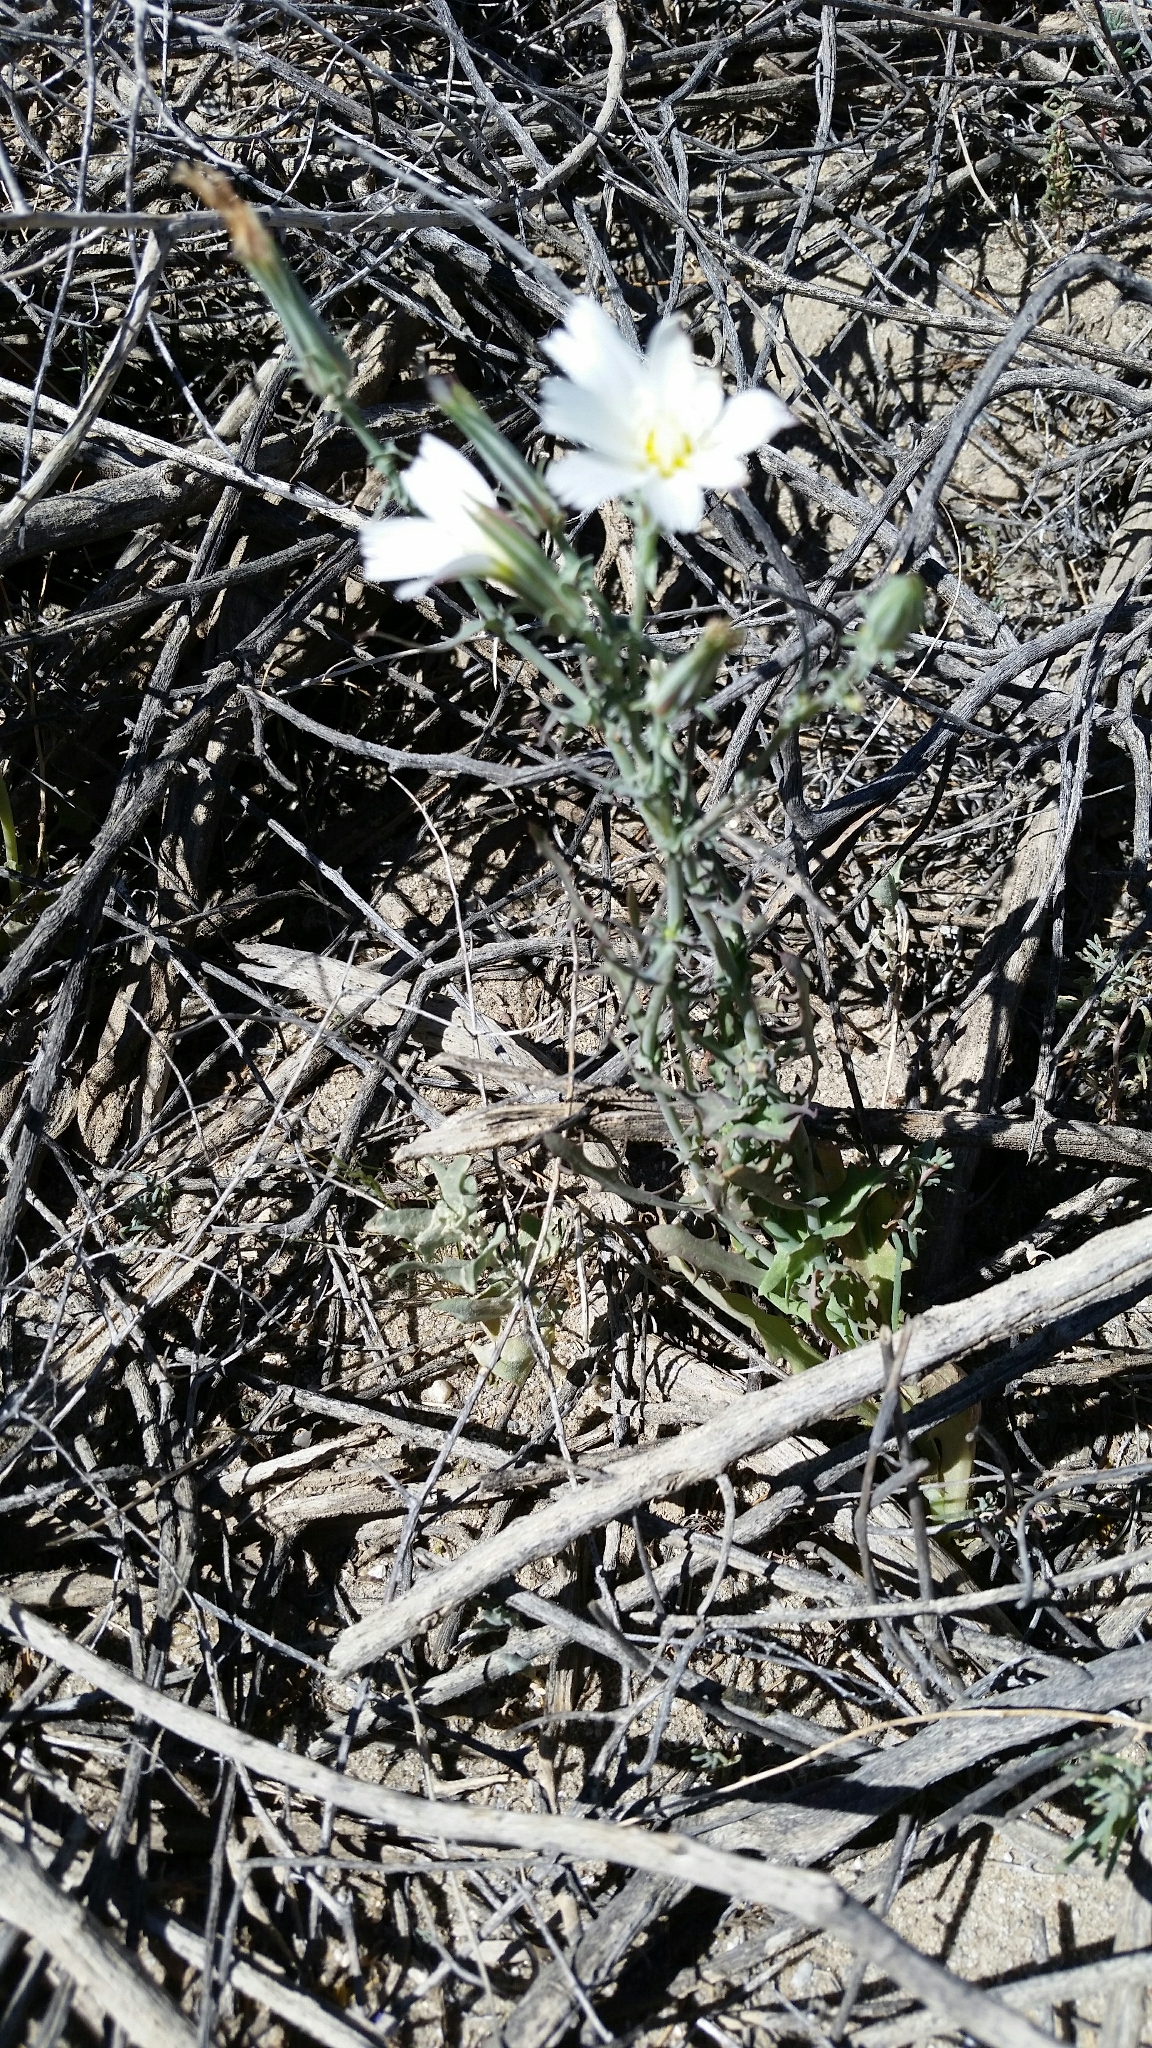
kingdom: Plantae
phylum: Tracheophyta
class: Magnoliopsida
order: Asterales
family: Asteraceae
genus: Rafinesquia
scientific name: Rafinesquia neomexicana
